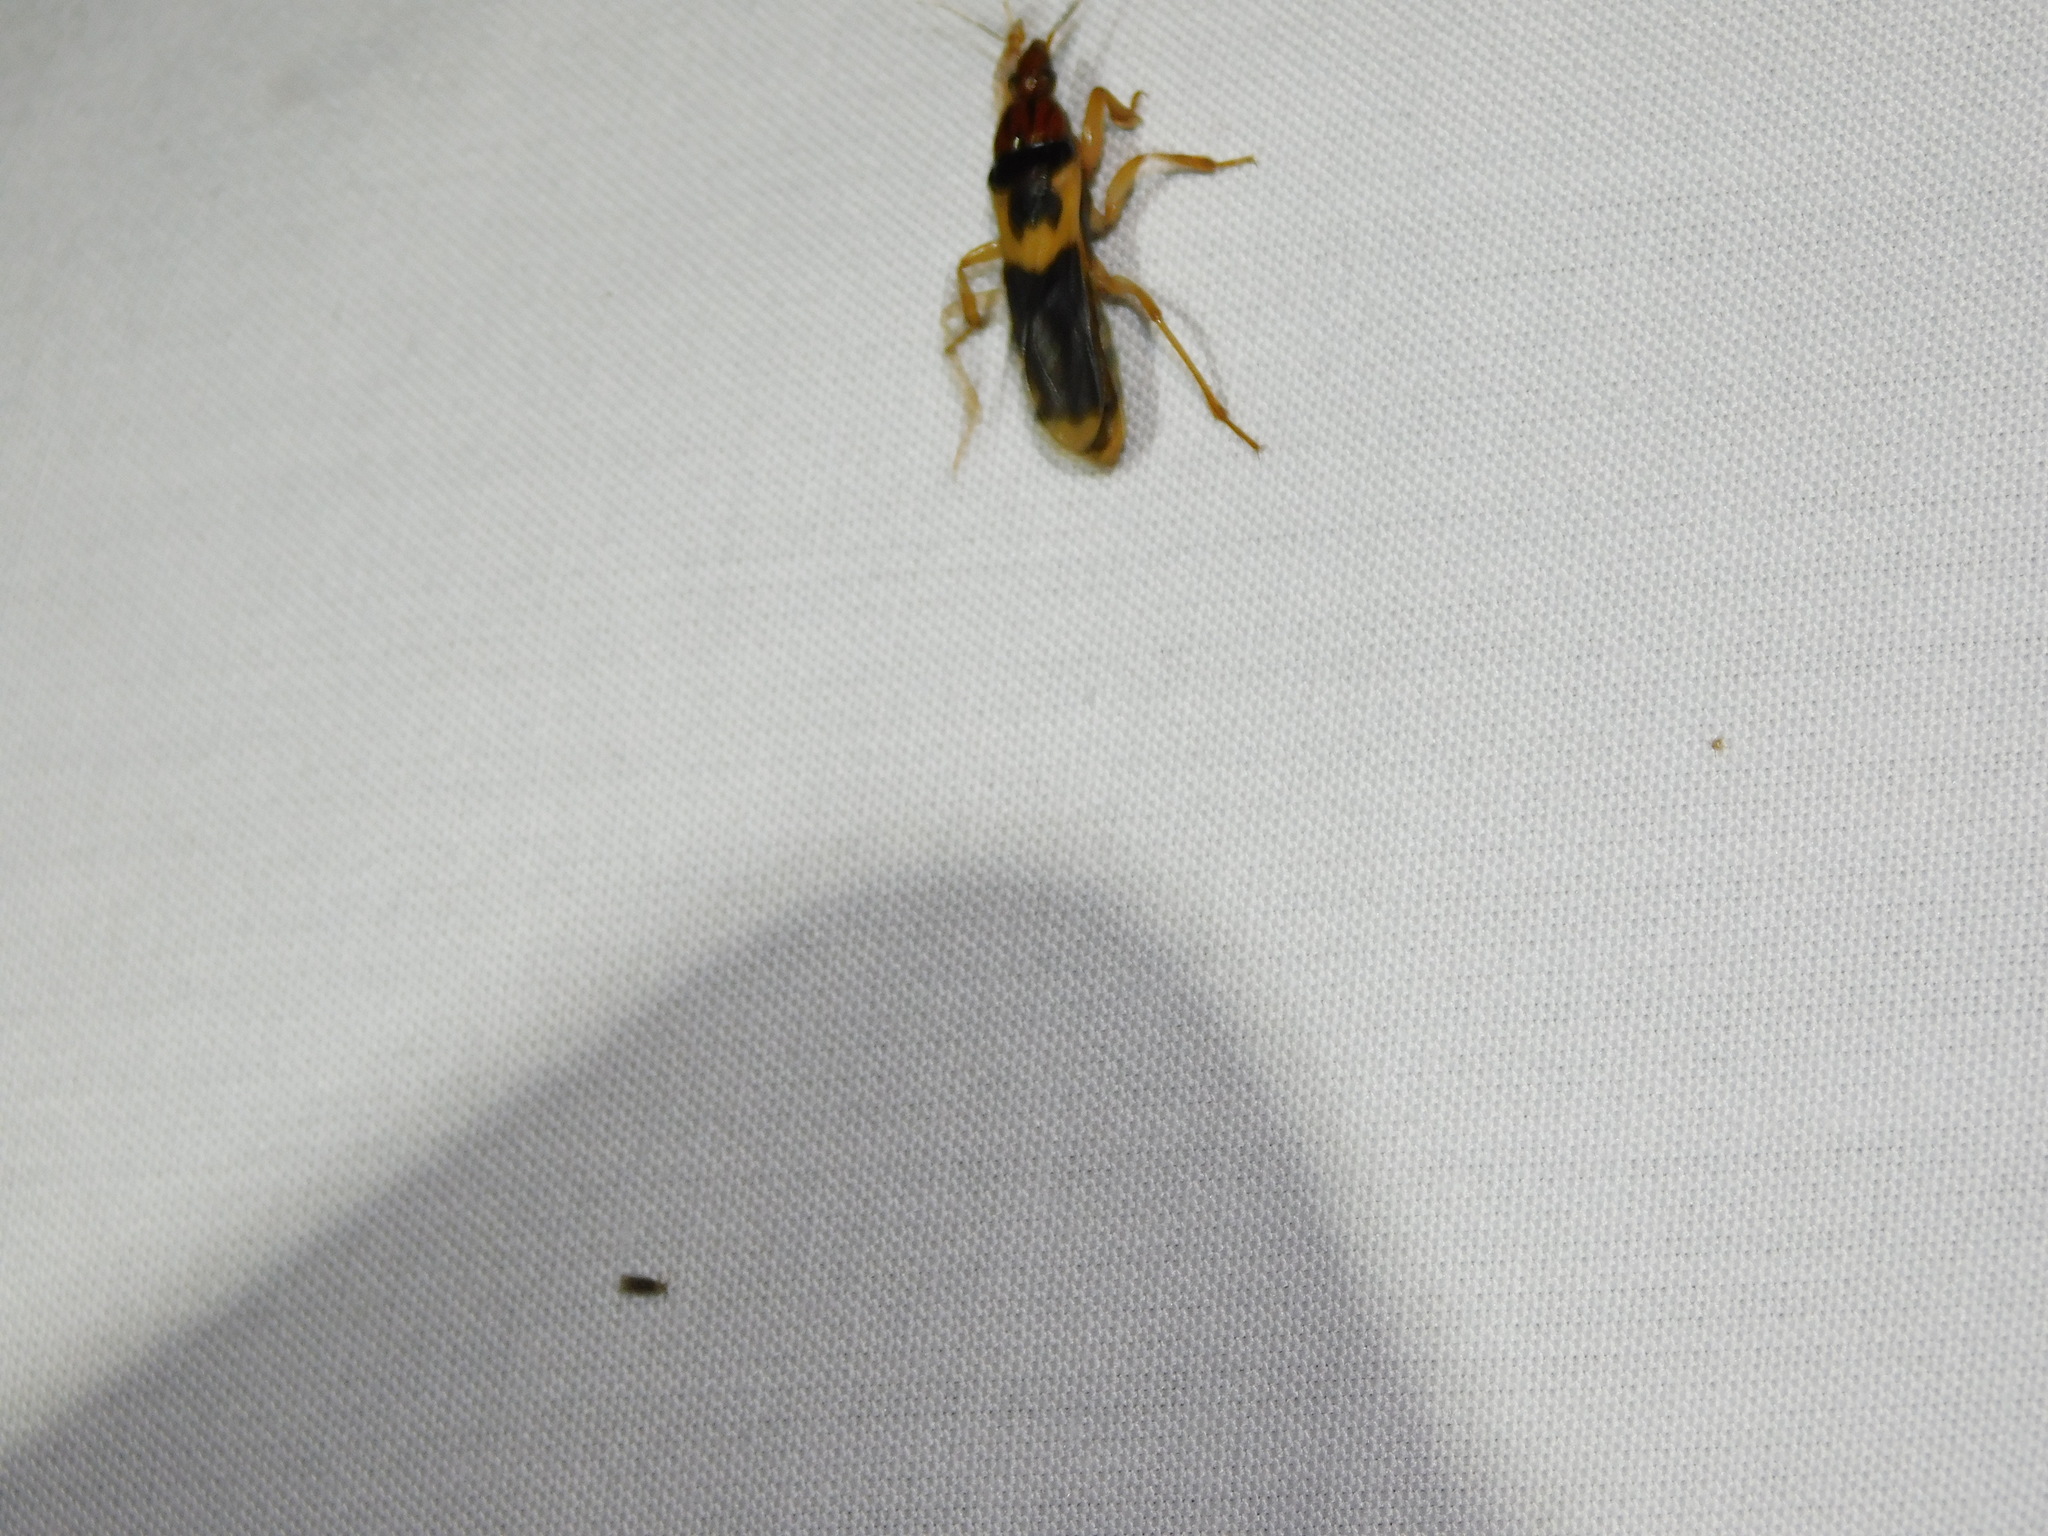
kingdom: Animalia
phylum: Arthropoda
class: Insecta
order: Hemiptera
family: Reduviidae
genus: Sirthenea
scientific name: Sirthenea flavipes
